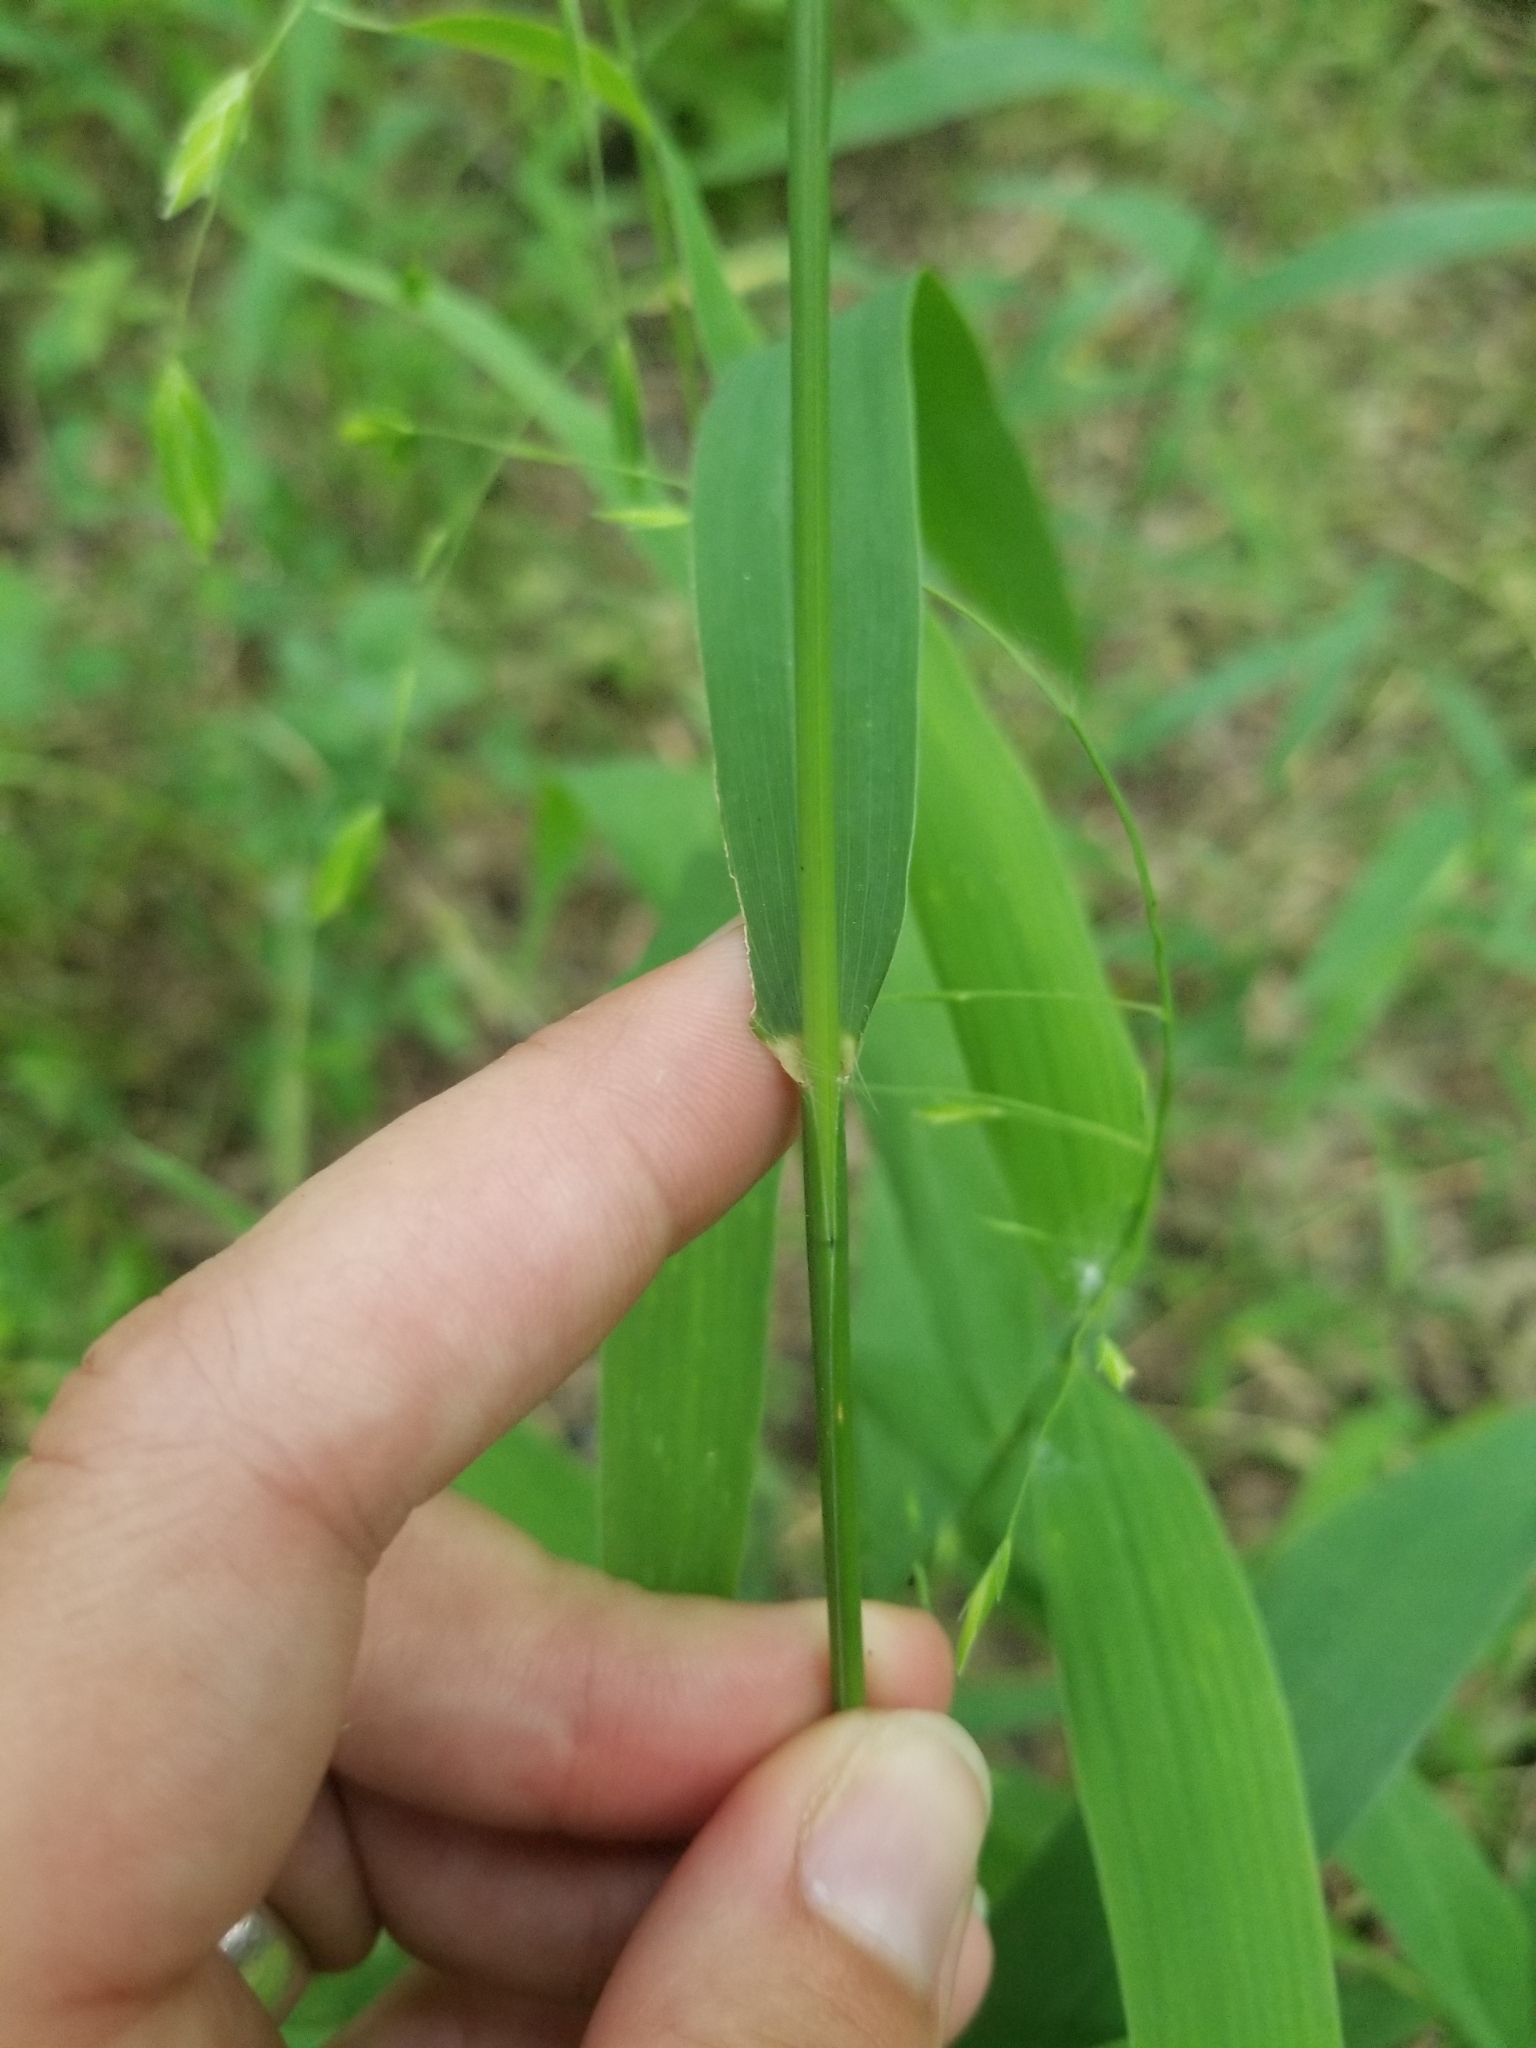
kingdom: Plantae
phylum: Tracheophyta
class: Liliopsida
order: Poales
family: Poaceae
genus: Chasmanthium
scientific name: Chasmanthium latifolium
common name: Broad-leaved chasmanthium
